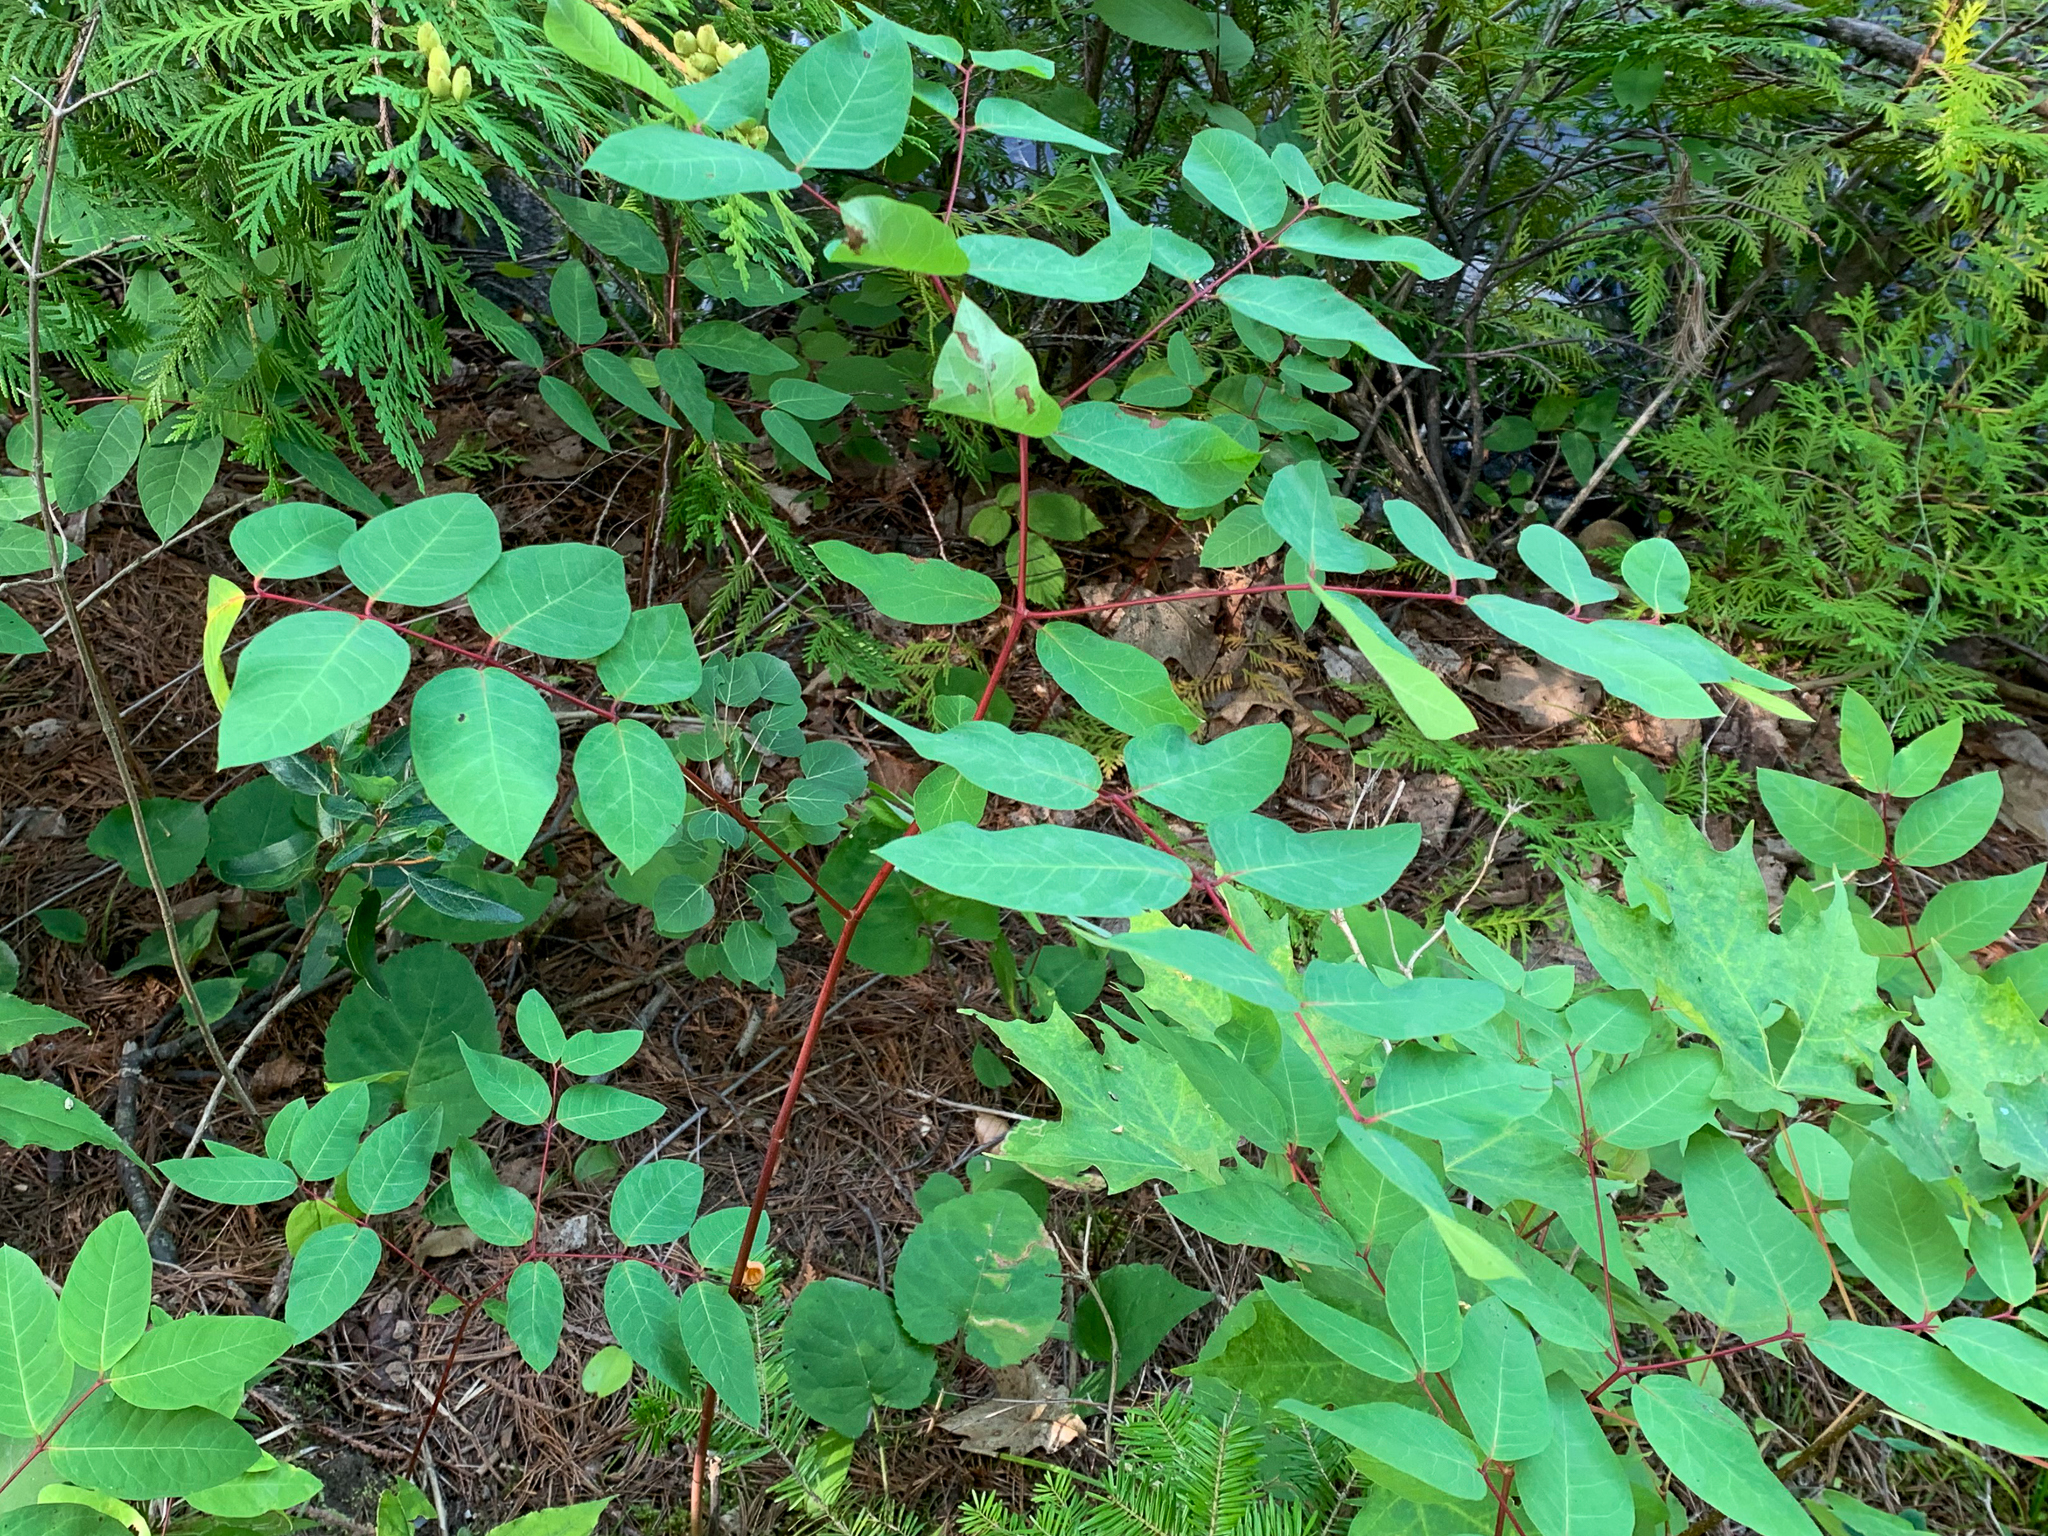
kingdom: Plantae
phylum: Tracheophyta
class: Magnoliopsida
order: Gentianales
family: Apocynaceae
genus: Apocynum
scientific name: Apocynum androsaemifolium
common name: Spreading dogbane
